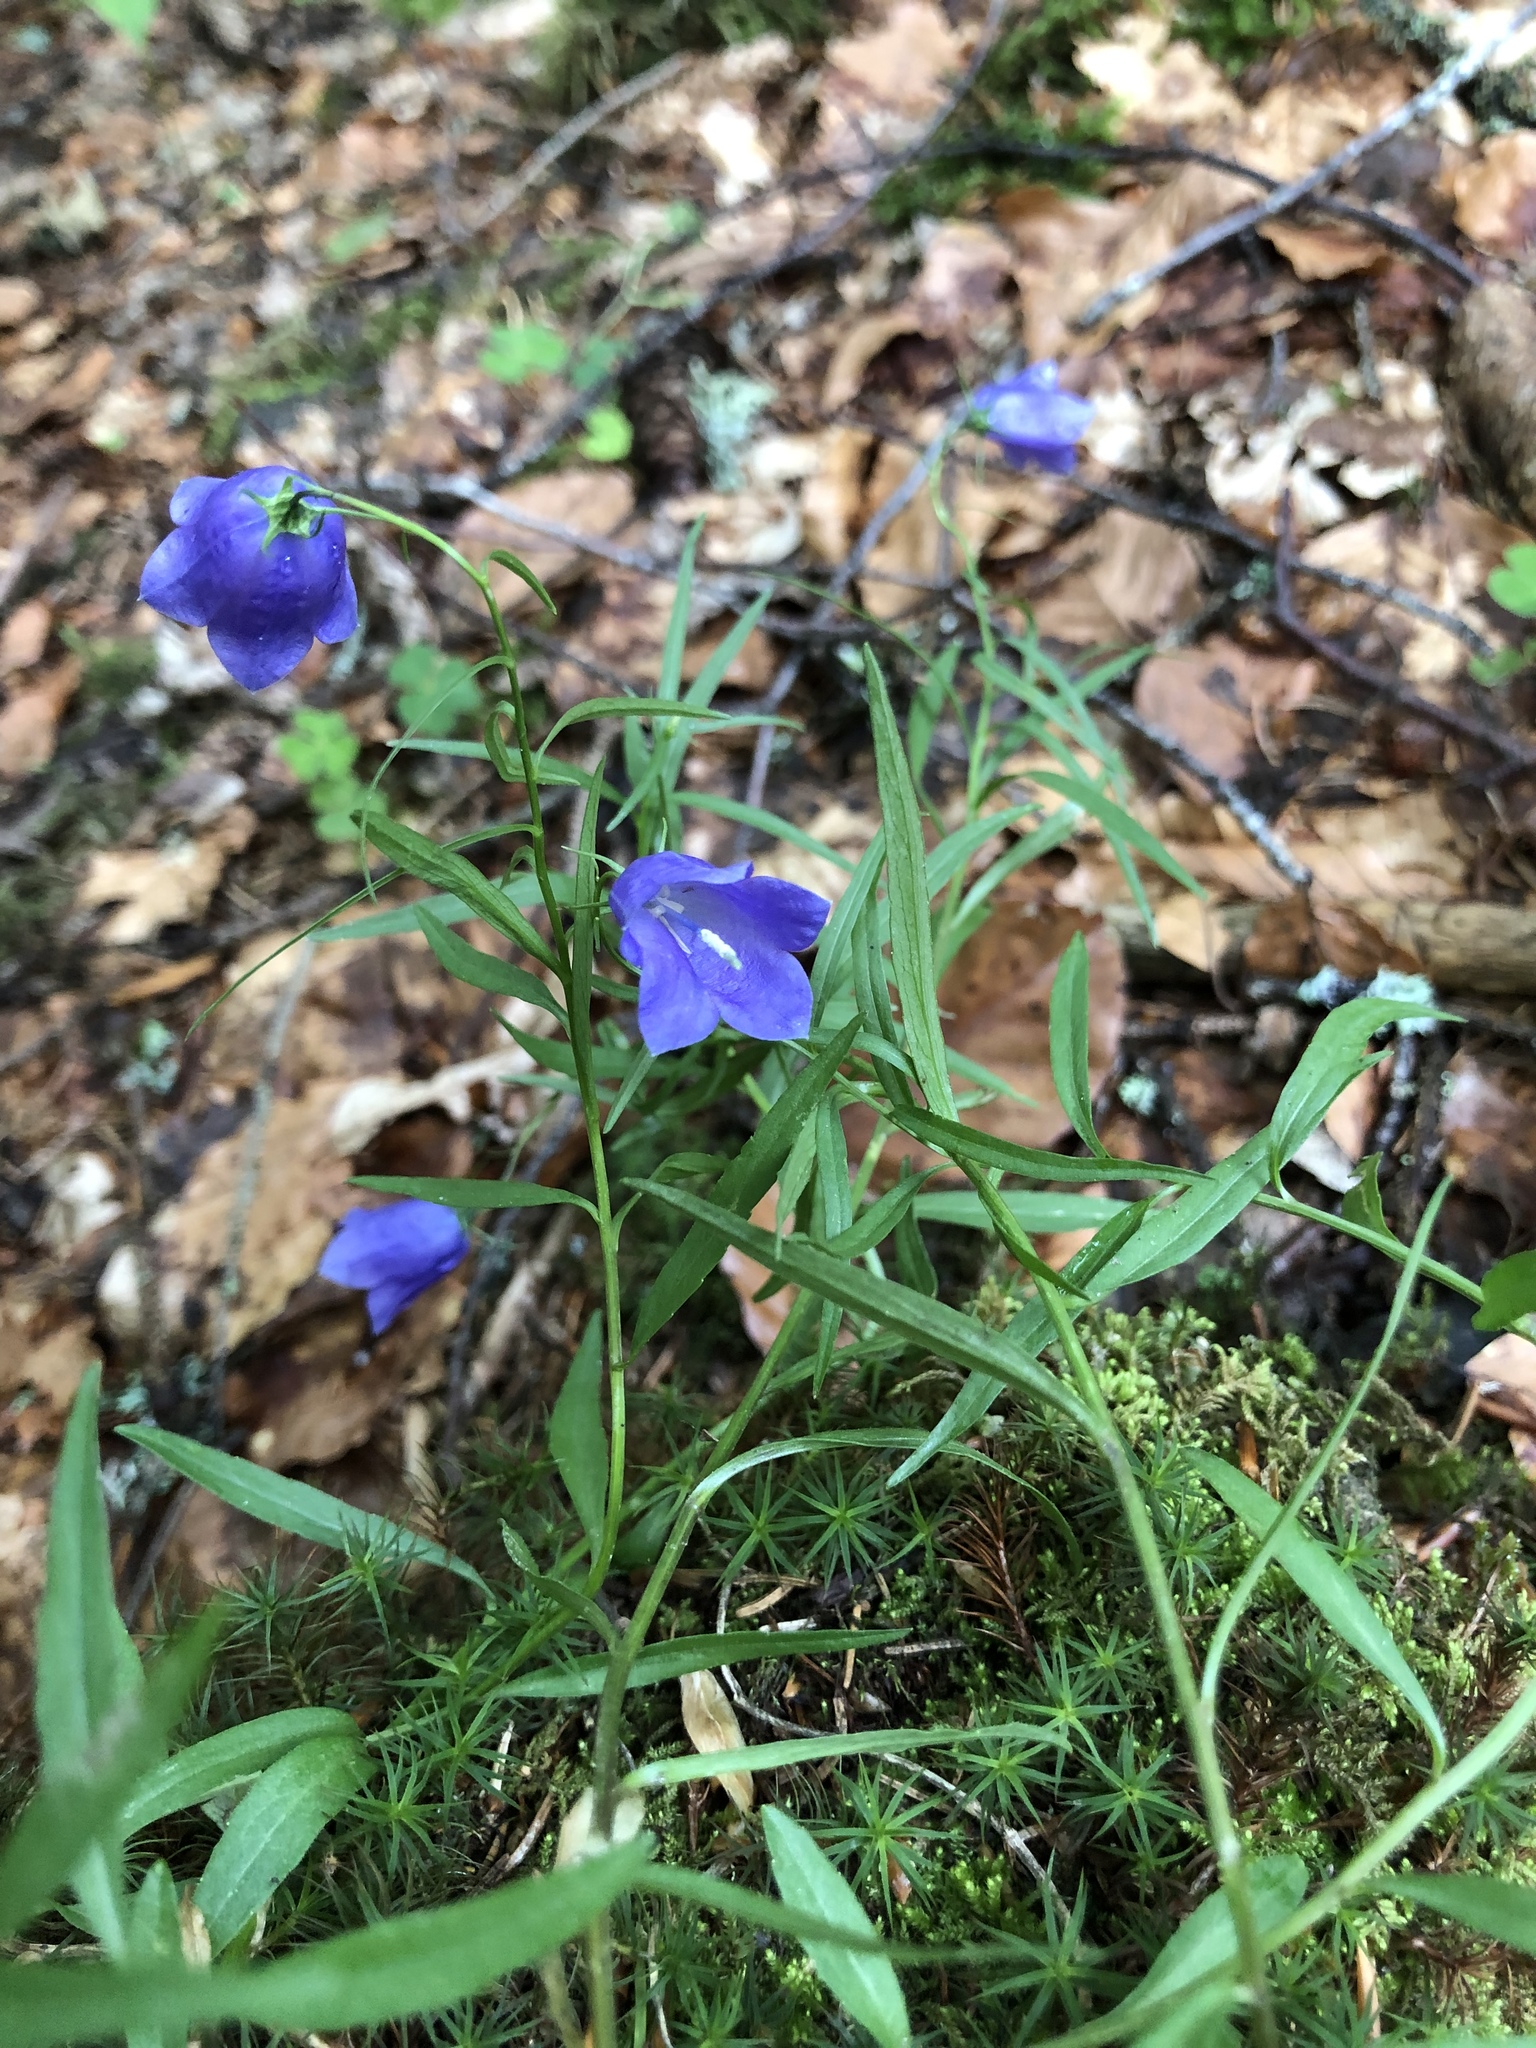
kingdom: Plantae
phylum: Tracheophyta
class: Magnoliopsida
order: Asterales
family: Campanulaceae
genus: Campanula
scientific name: Campanula rotundifolia
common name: Harebell
